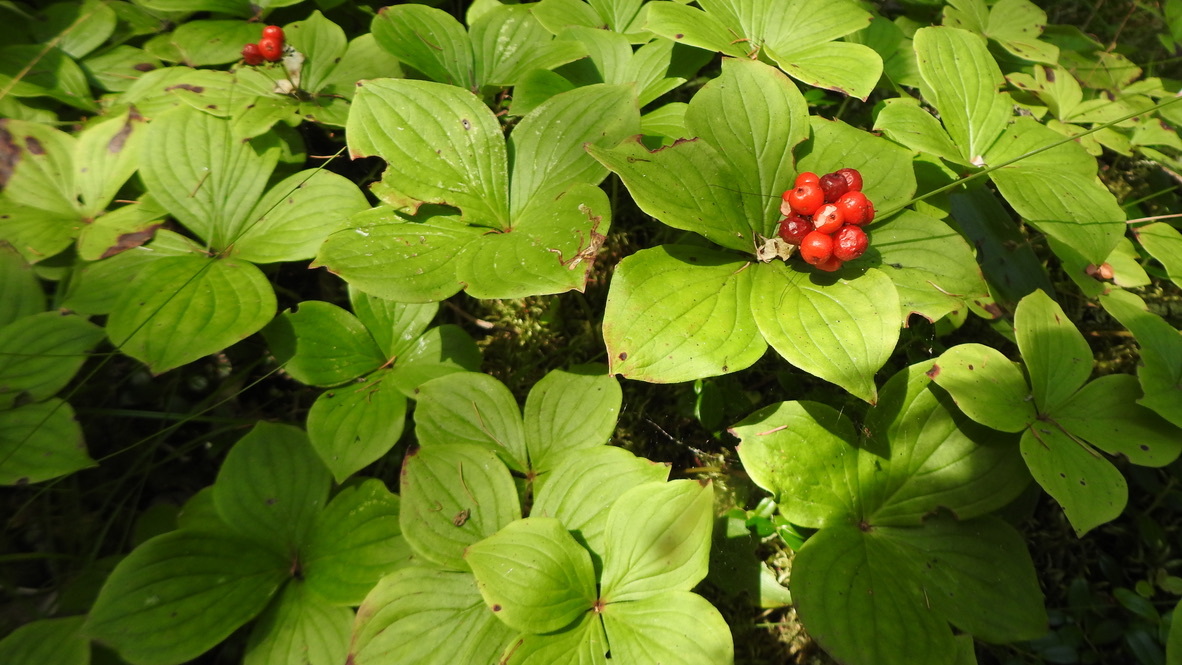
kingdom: Plantae
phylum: Tracheophyta
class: Magnoliopsida
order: Cornales
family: Cornaceae
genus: Cornus
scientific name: Cornus canadensis
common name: Creeping dogwood
